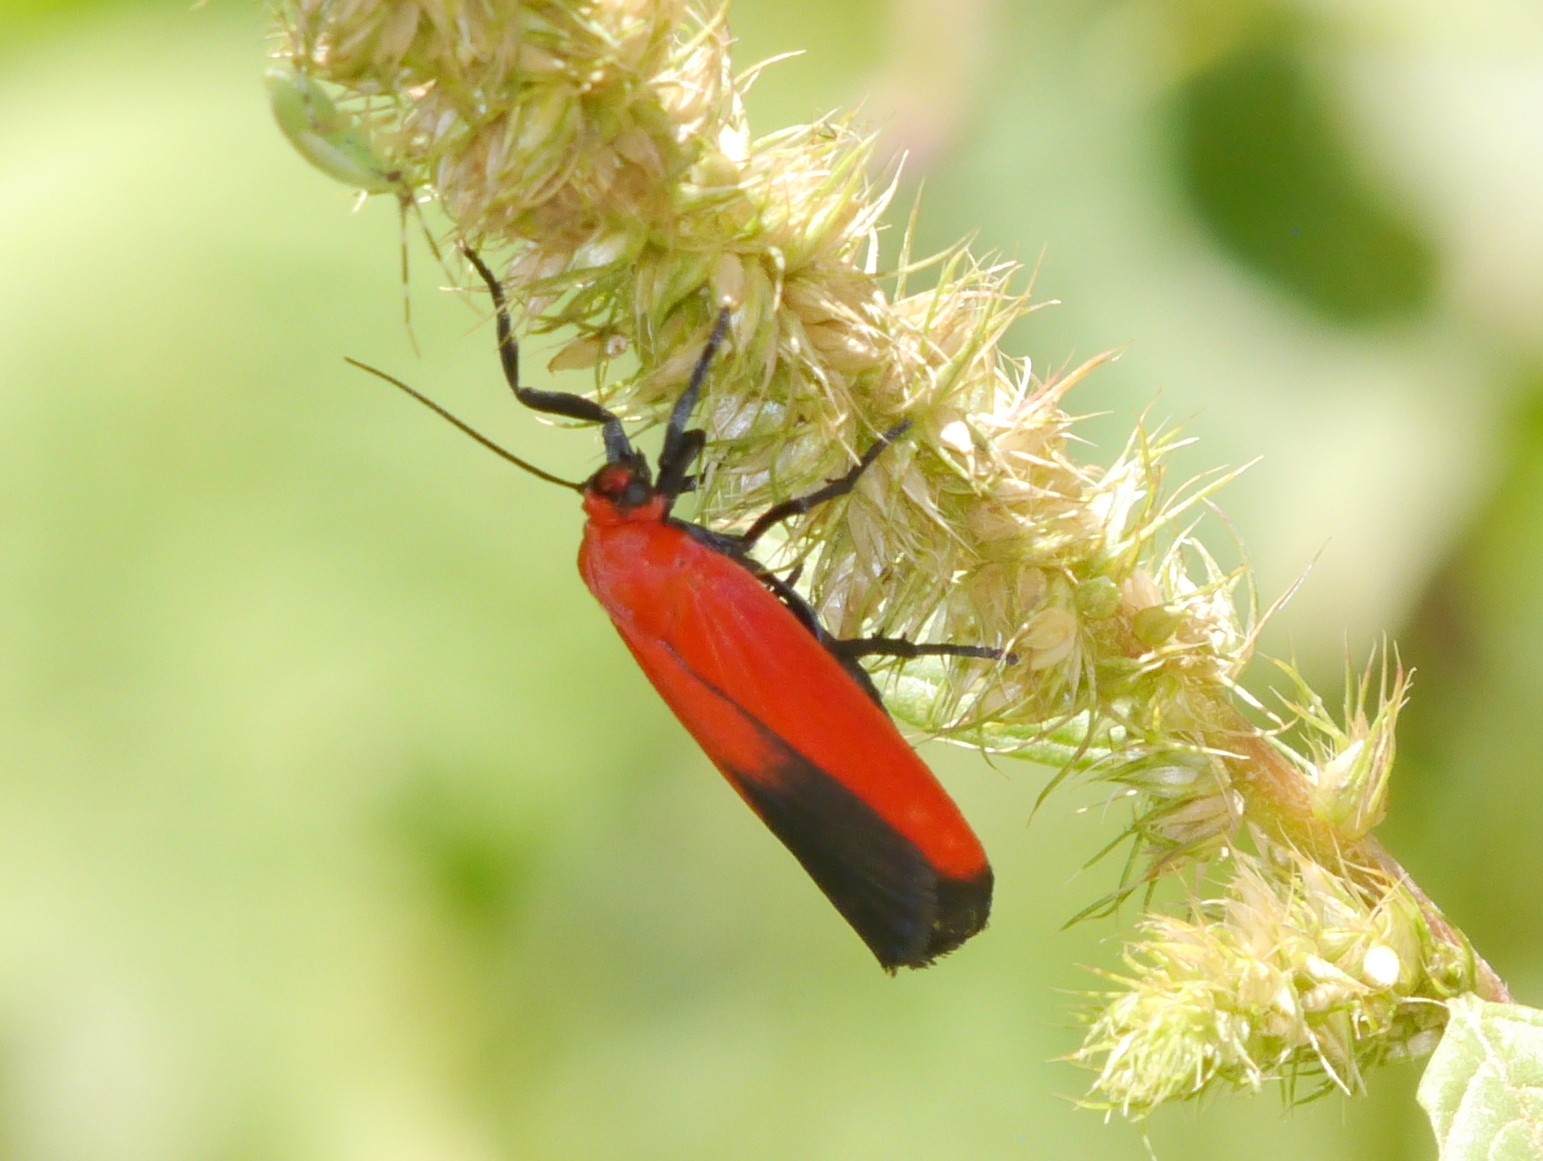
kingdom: Animalia
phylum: Arthropoda
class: Insecta
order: Lepidoptera
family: Erebidae
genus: Ptychoglene
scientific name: Ptychoglene coccinea
